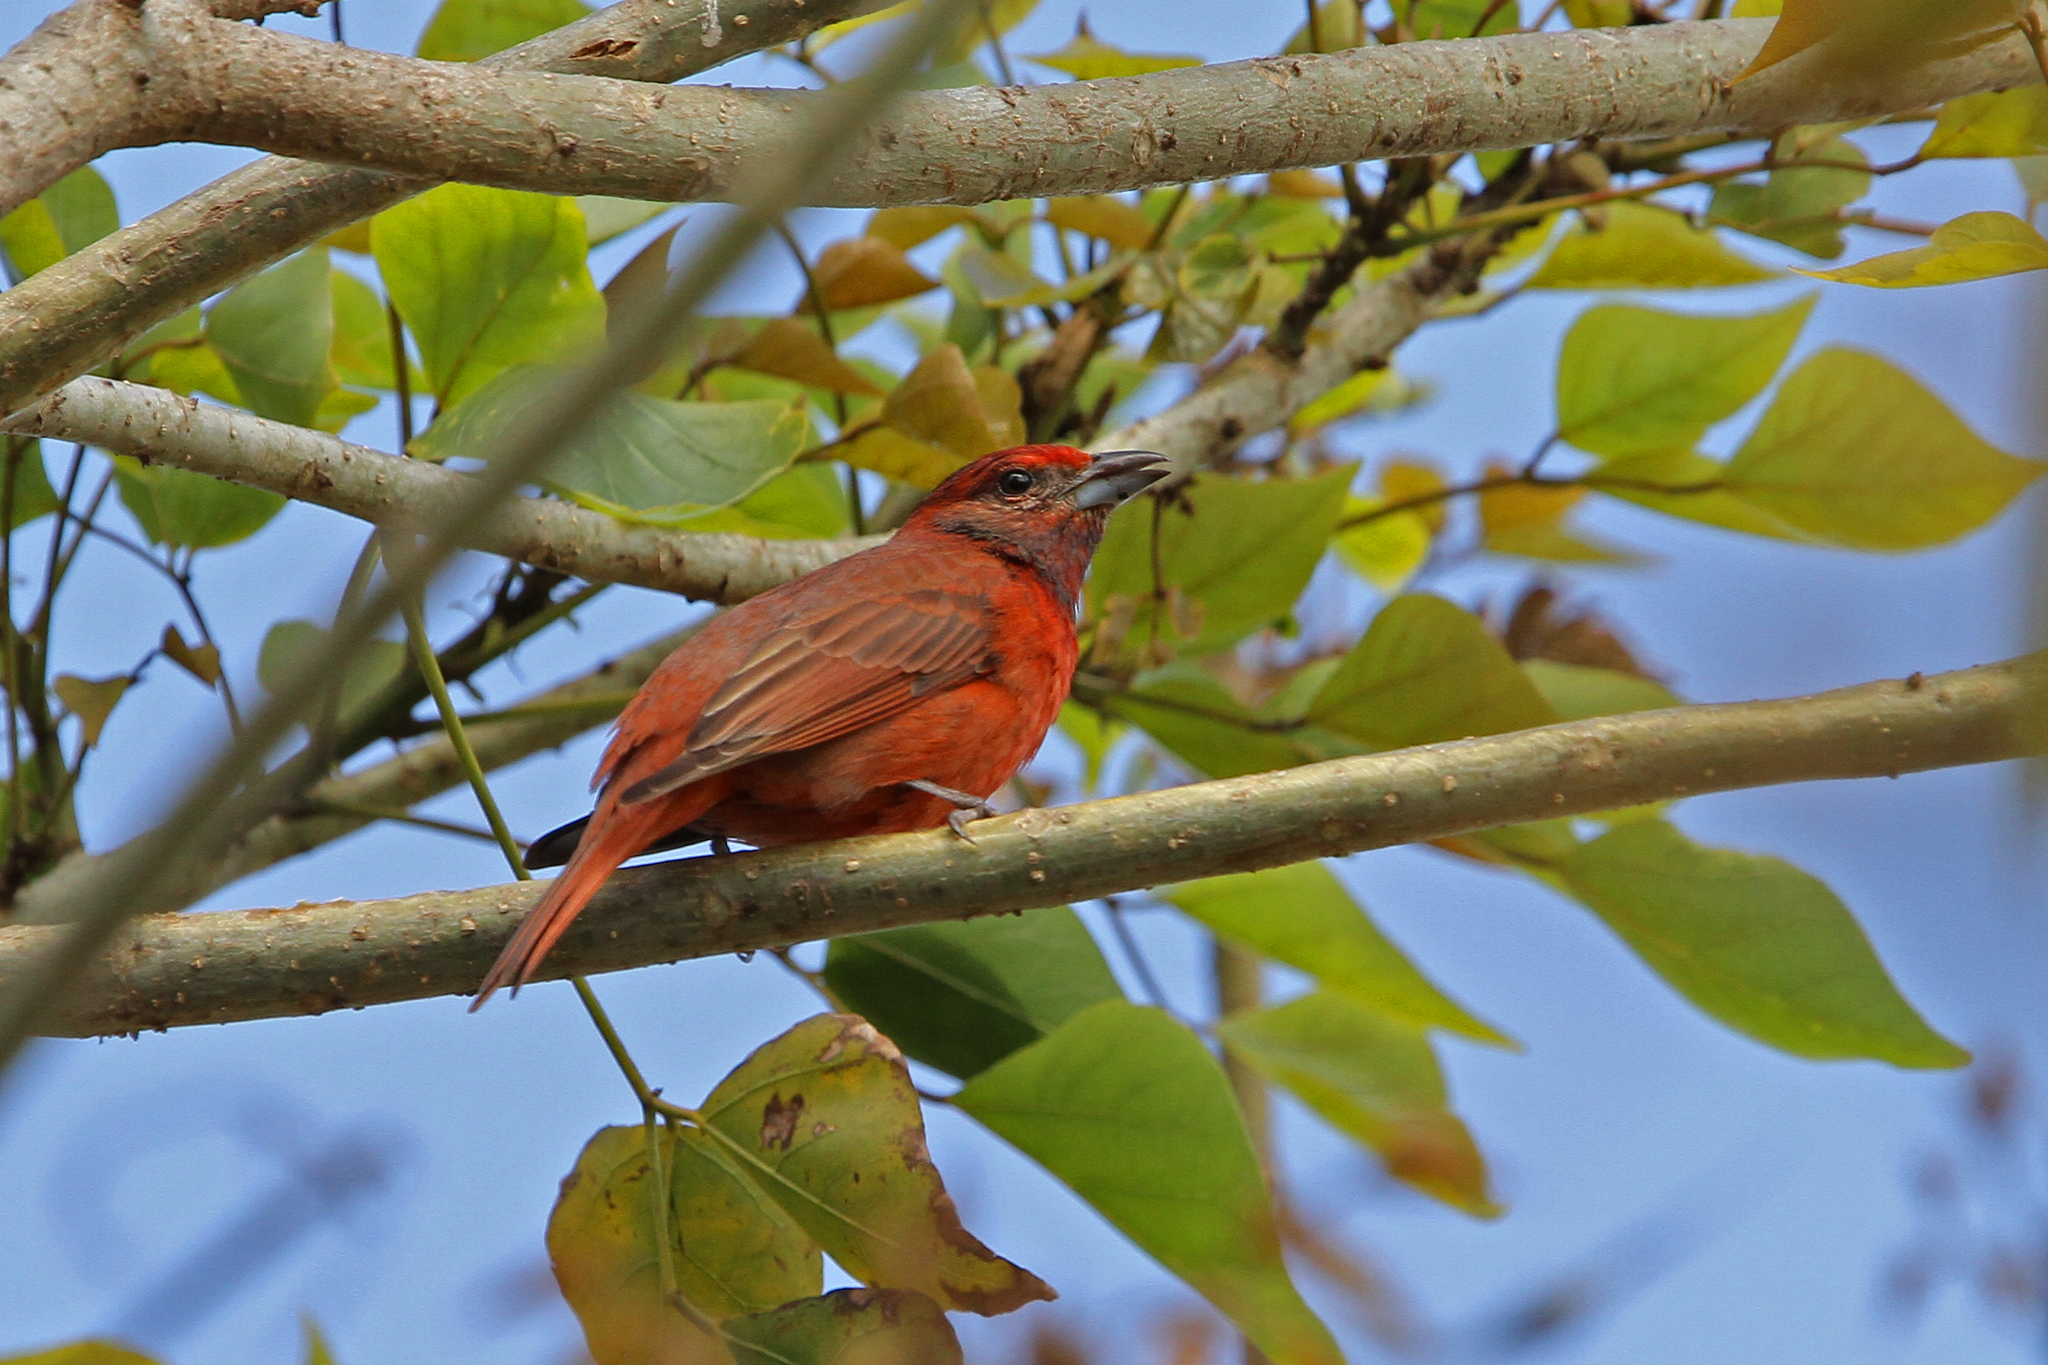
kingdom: Animalia
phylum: Chordata
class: Aves
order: Passeriformes
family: Cardinalidae
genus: Piranga
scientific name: Piranga flava
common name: Red tanager
